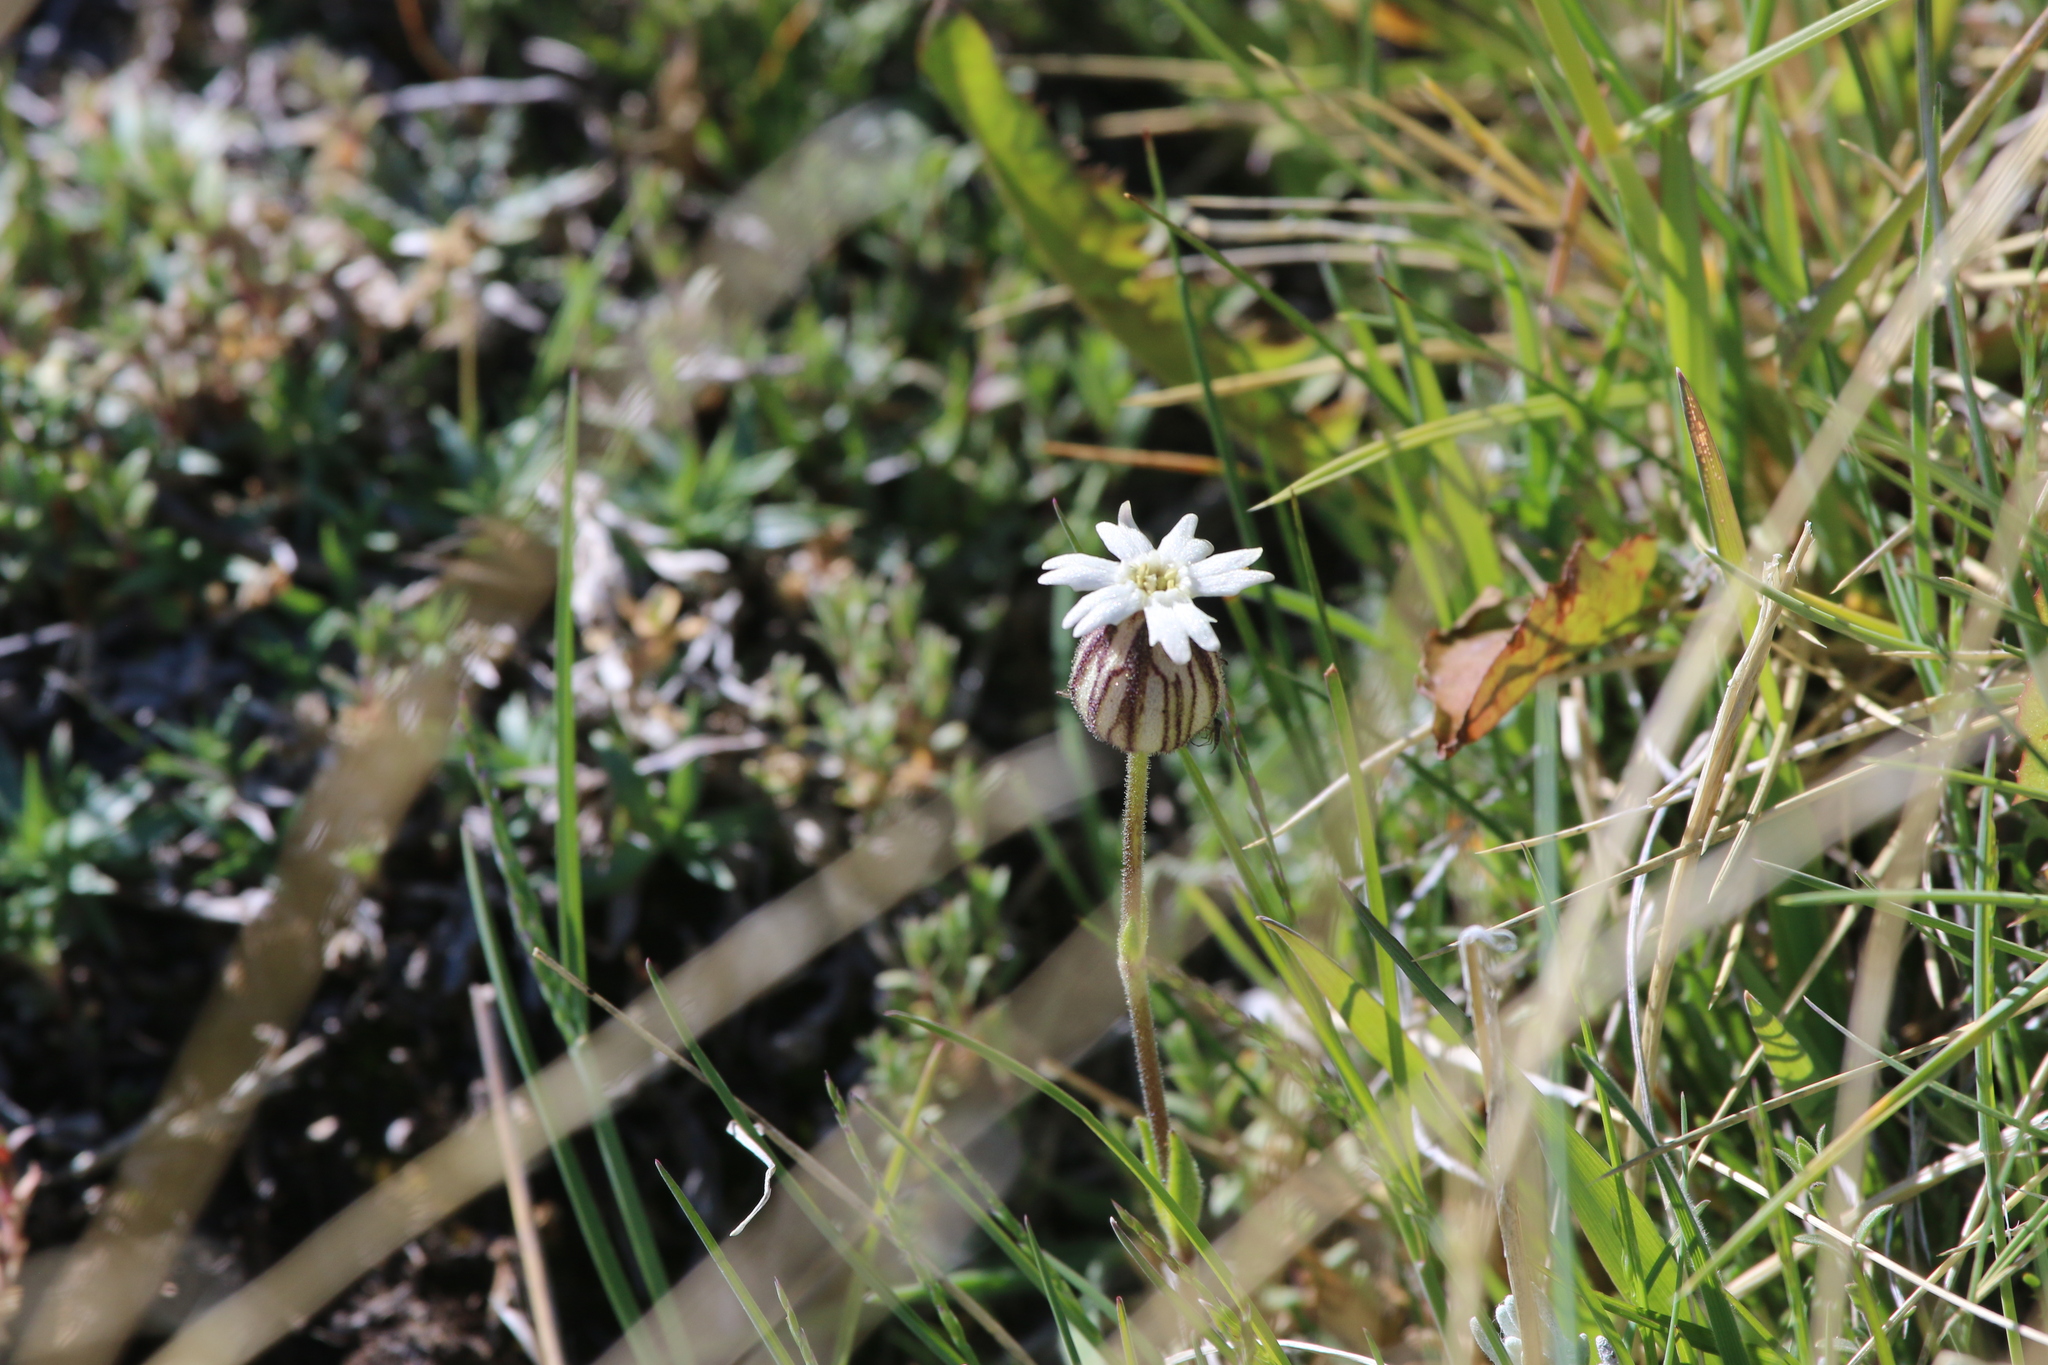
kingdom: Plantae
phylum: Tracheophyta
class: Magnoliopsida
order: Caryophyllales
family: Caryophyllaceae
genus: Silene
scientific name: Silene magellanica
